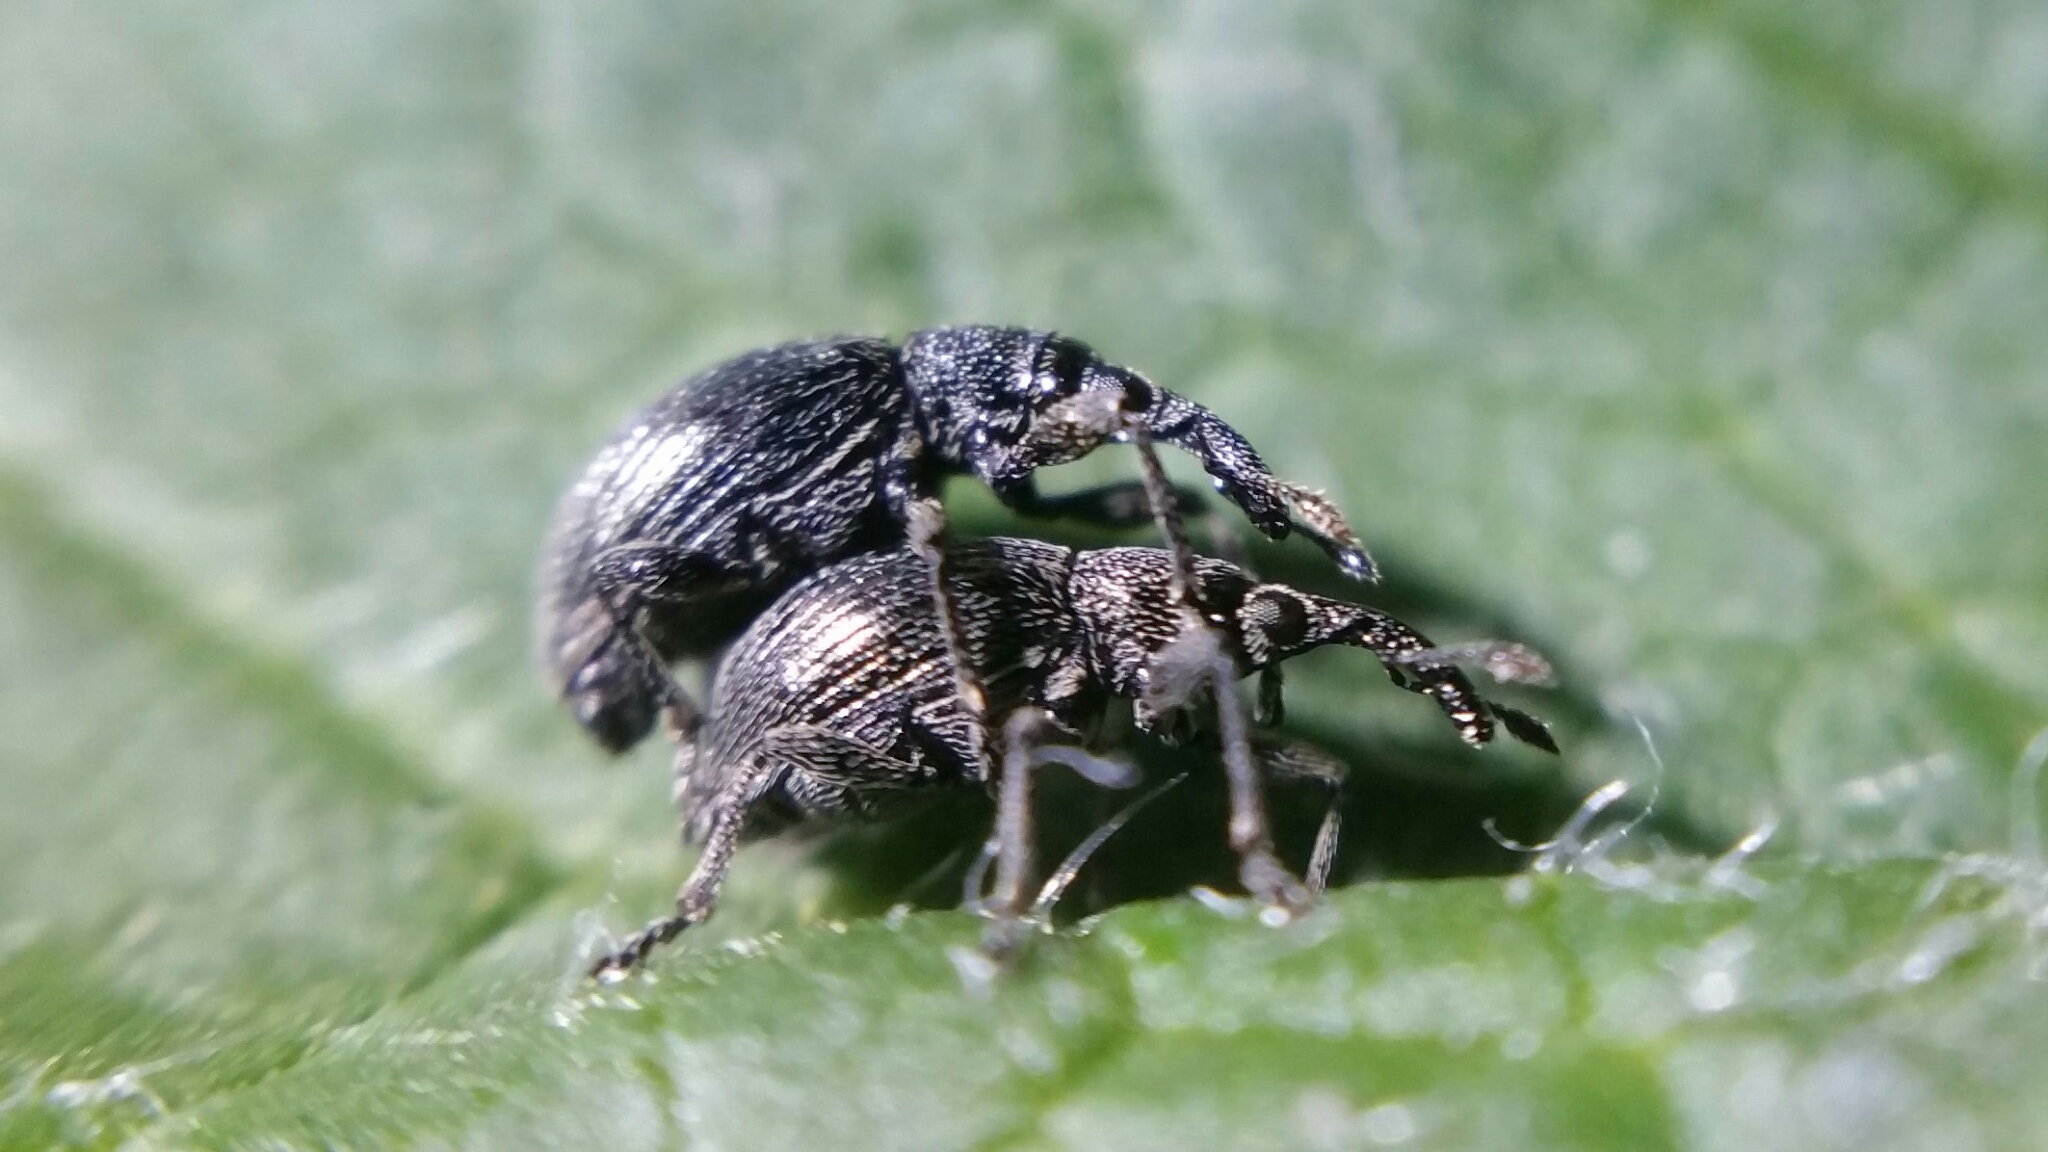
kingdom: Animalia
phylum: Arthropoda
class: Insecta
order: Coleoptera
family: Apionidae
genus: Aspidapion
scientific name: Aspidapion radiolus
